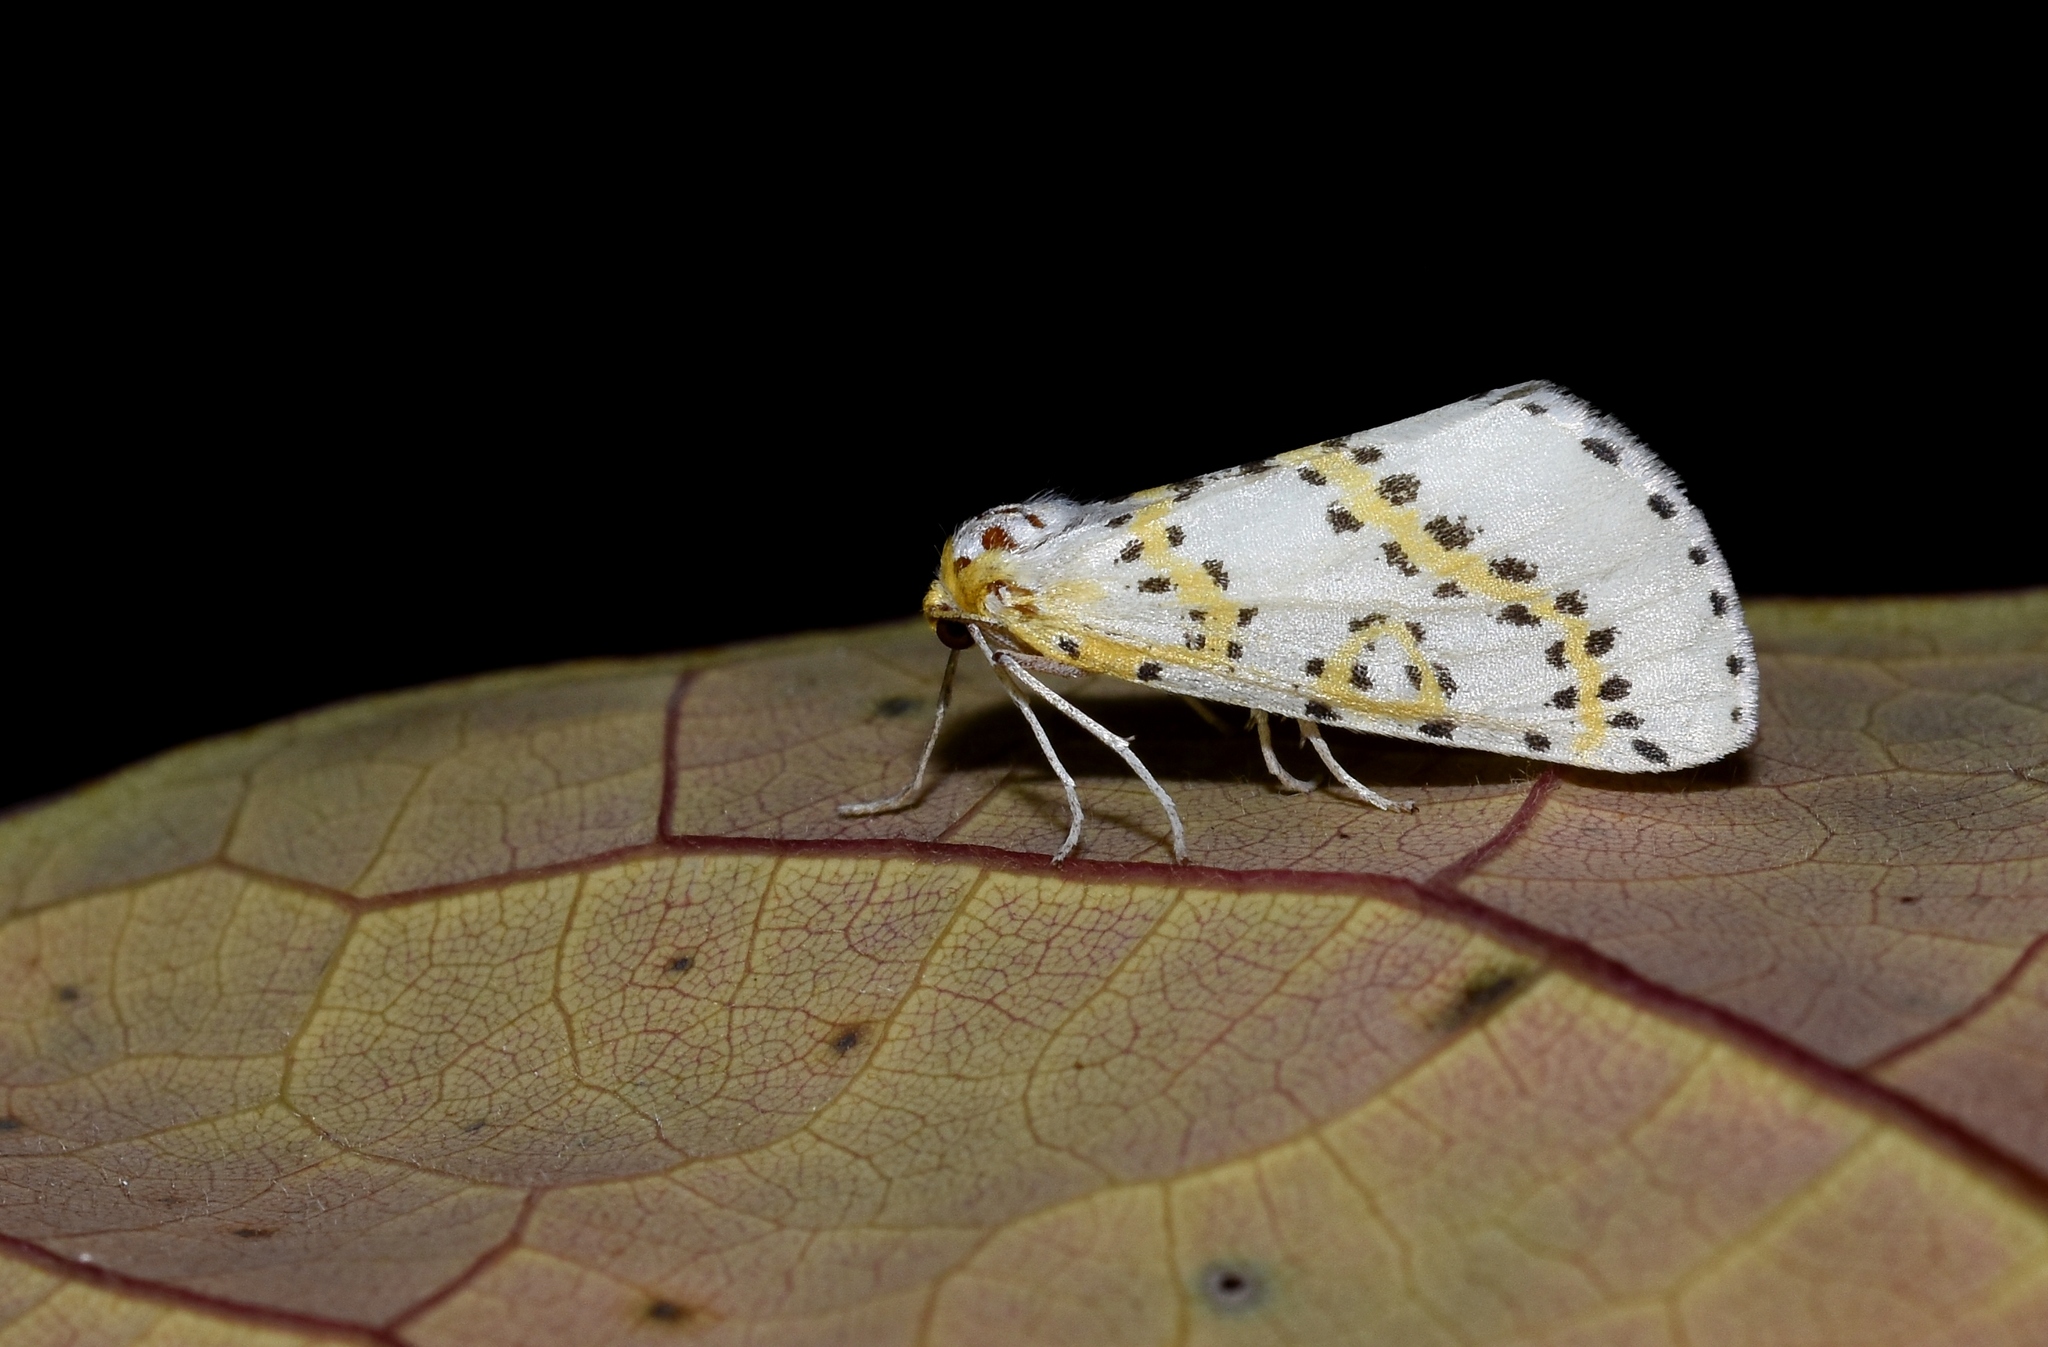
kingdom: Animalia
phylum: Arthropoda
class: Insecta
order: Lepidoptera
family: Geometridae
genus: Philtraea
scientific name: Philtraea monillata
